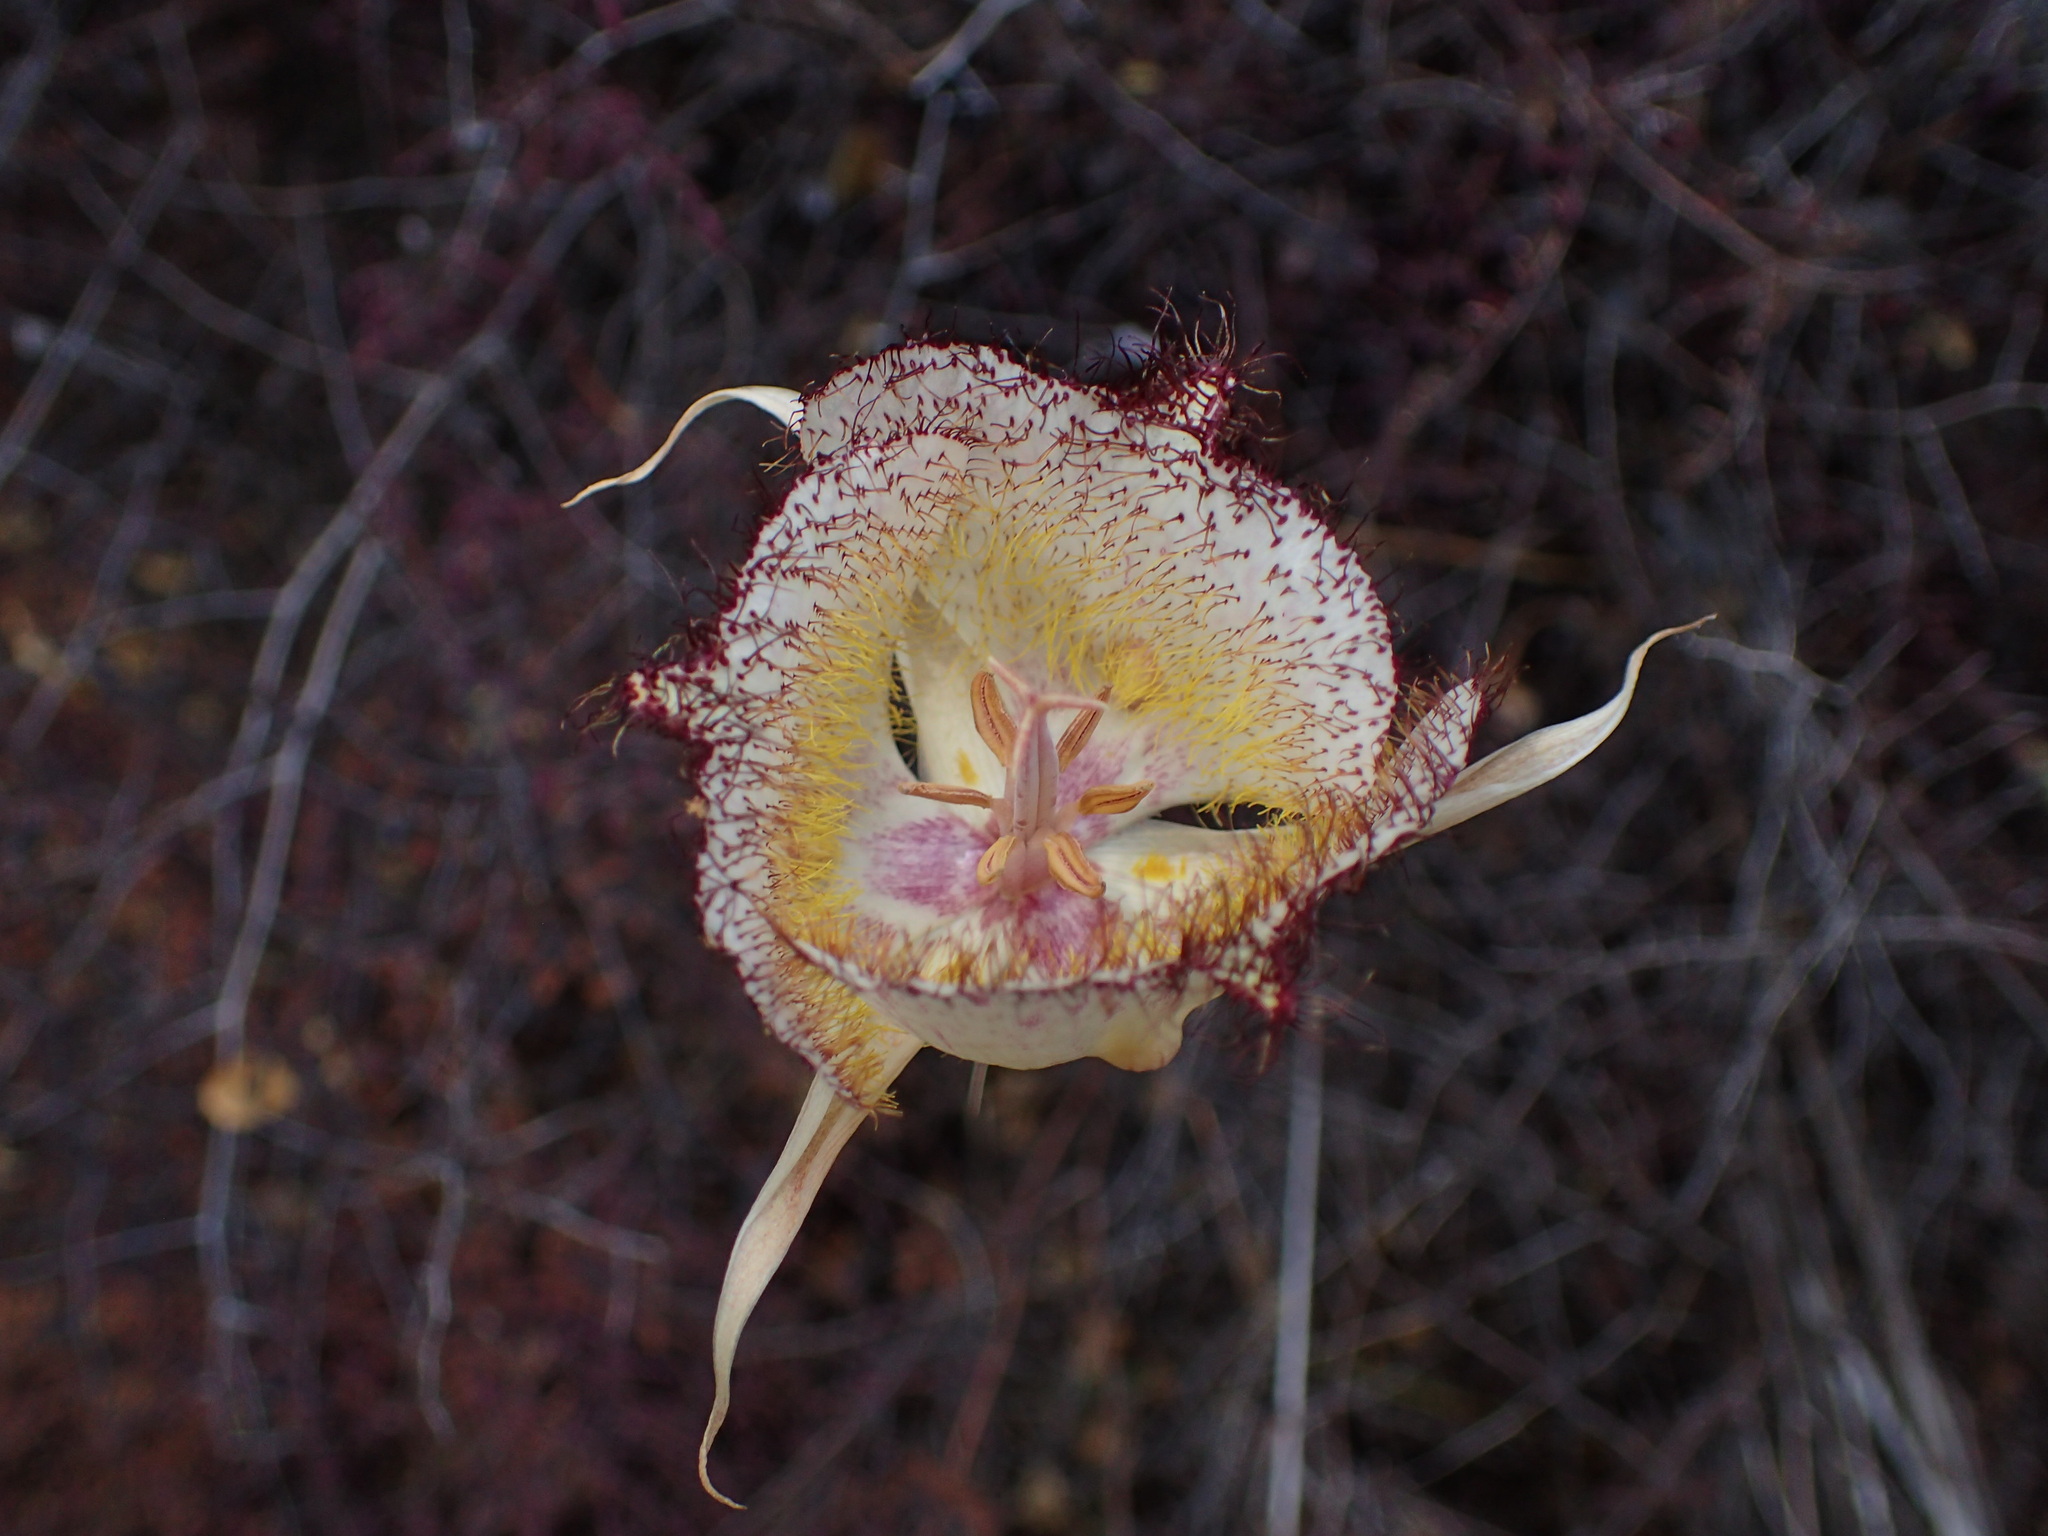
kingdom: Plantae
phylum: Tracheophyta
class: Liliopsida
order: Liliales
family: Liliaceae
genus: Calochortus
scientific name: Calochortus fimbriatus
